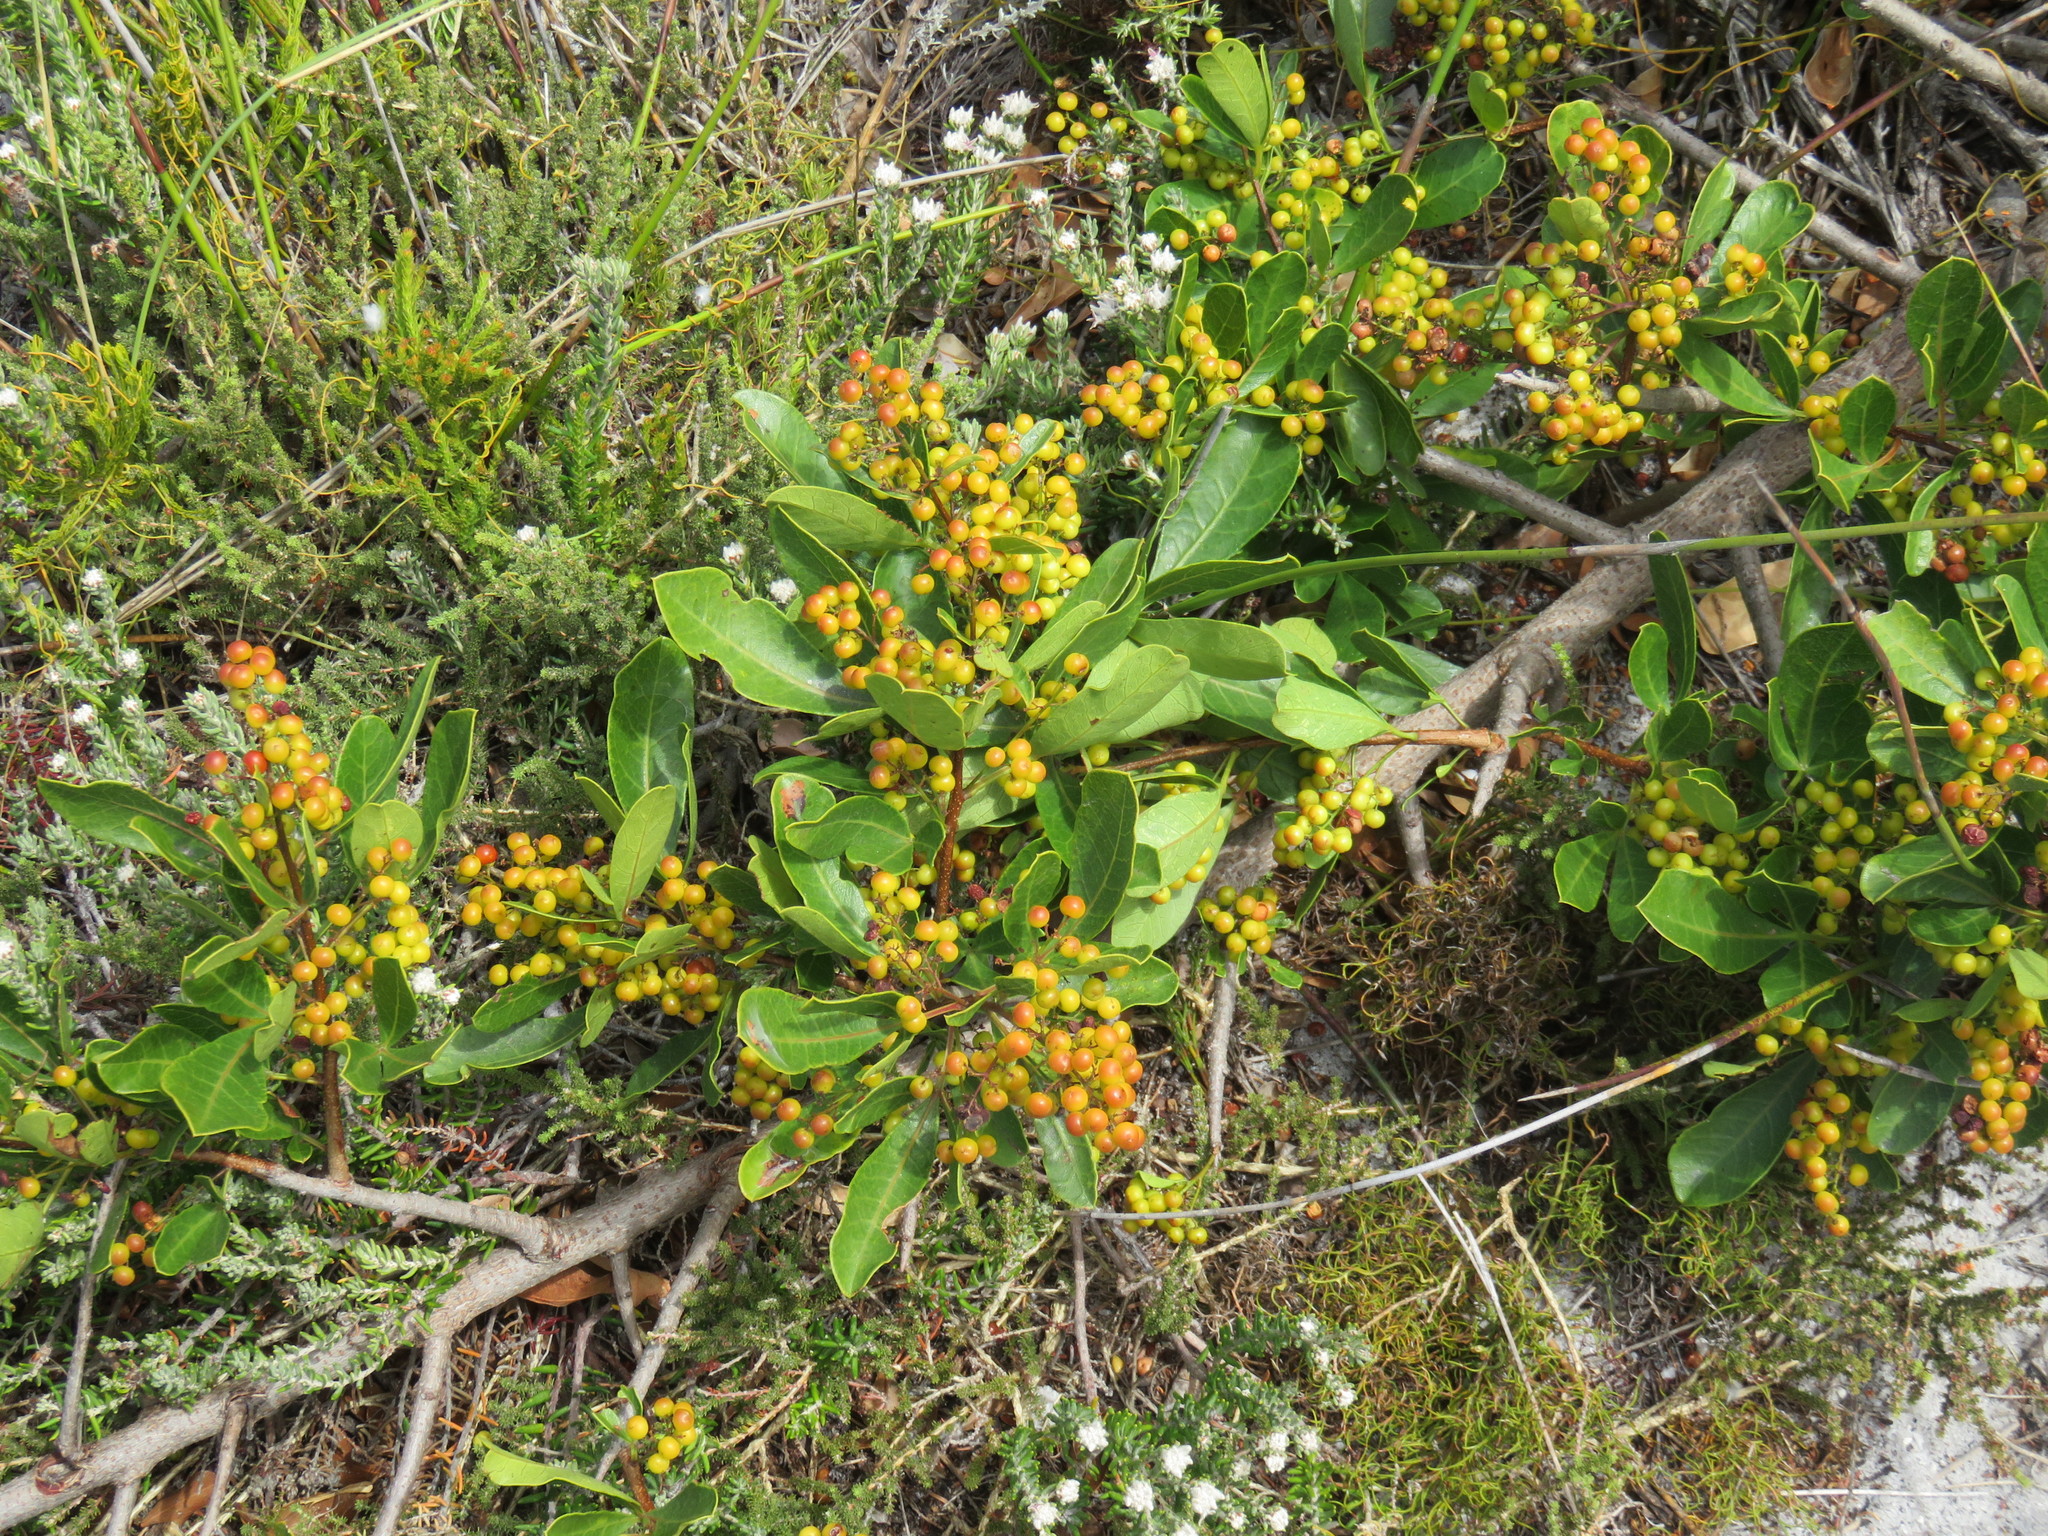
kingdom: Plantae
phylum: Tracheophyta
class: Magnoliopsida
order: Sapindales
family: Anacardiaceae
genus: Searsia
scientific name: Searsia laevigata
